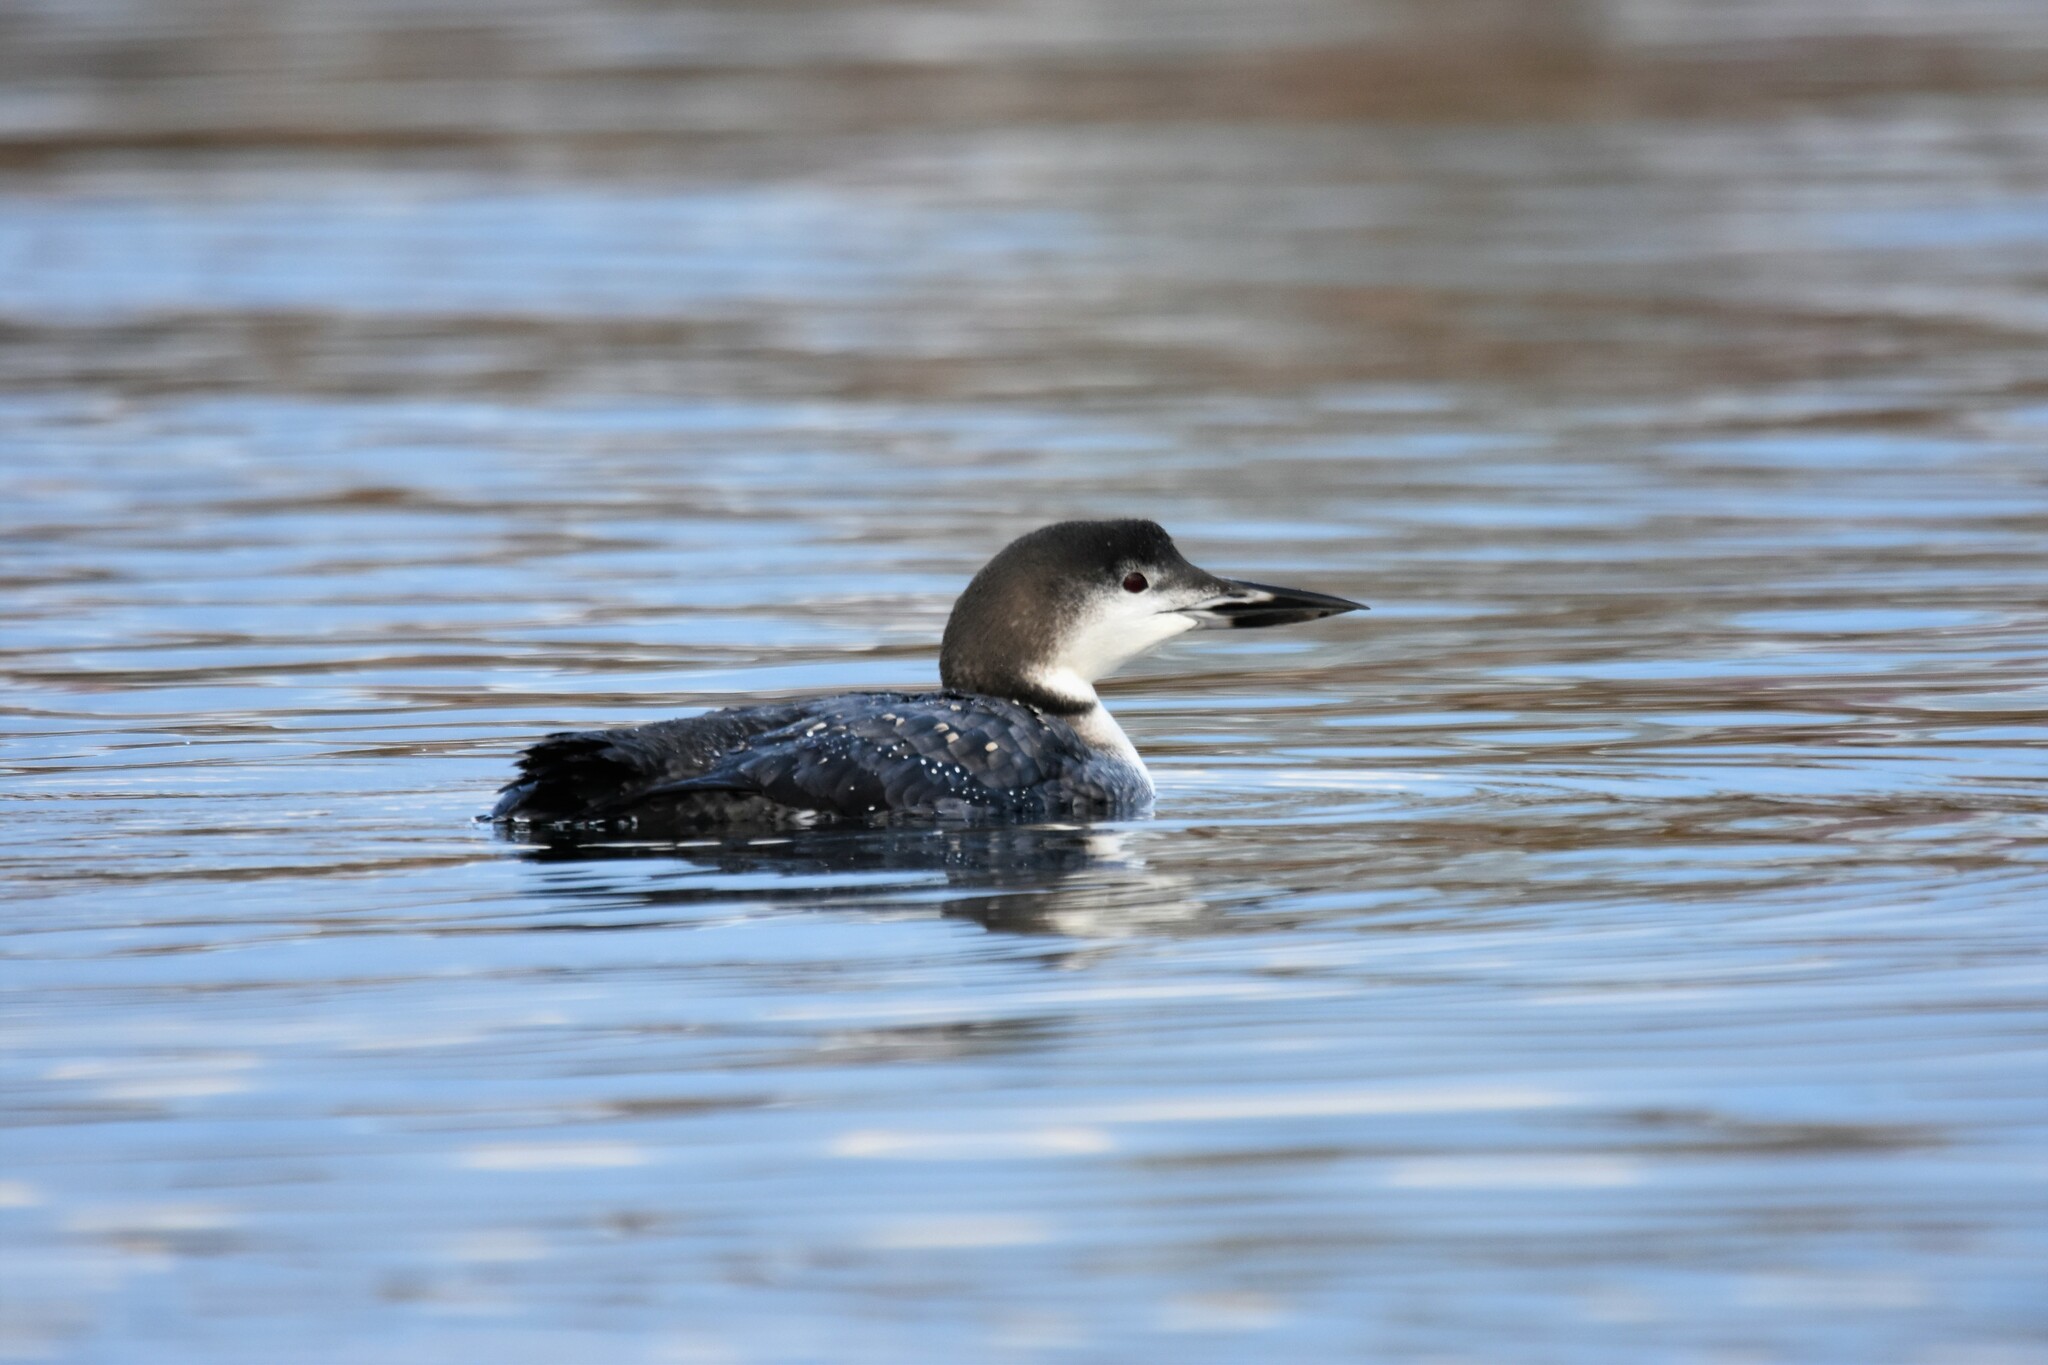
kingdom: Animalia
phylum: Chordata
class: Aves
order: Gaviiformes
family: Gaviidae
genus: Gavia
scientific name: Gavia immer
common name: Common loon
